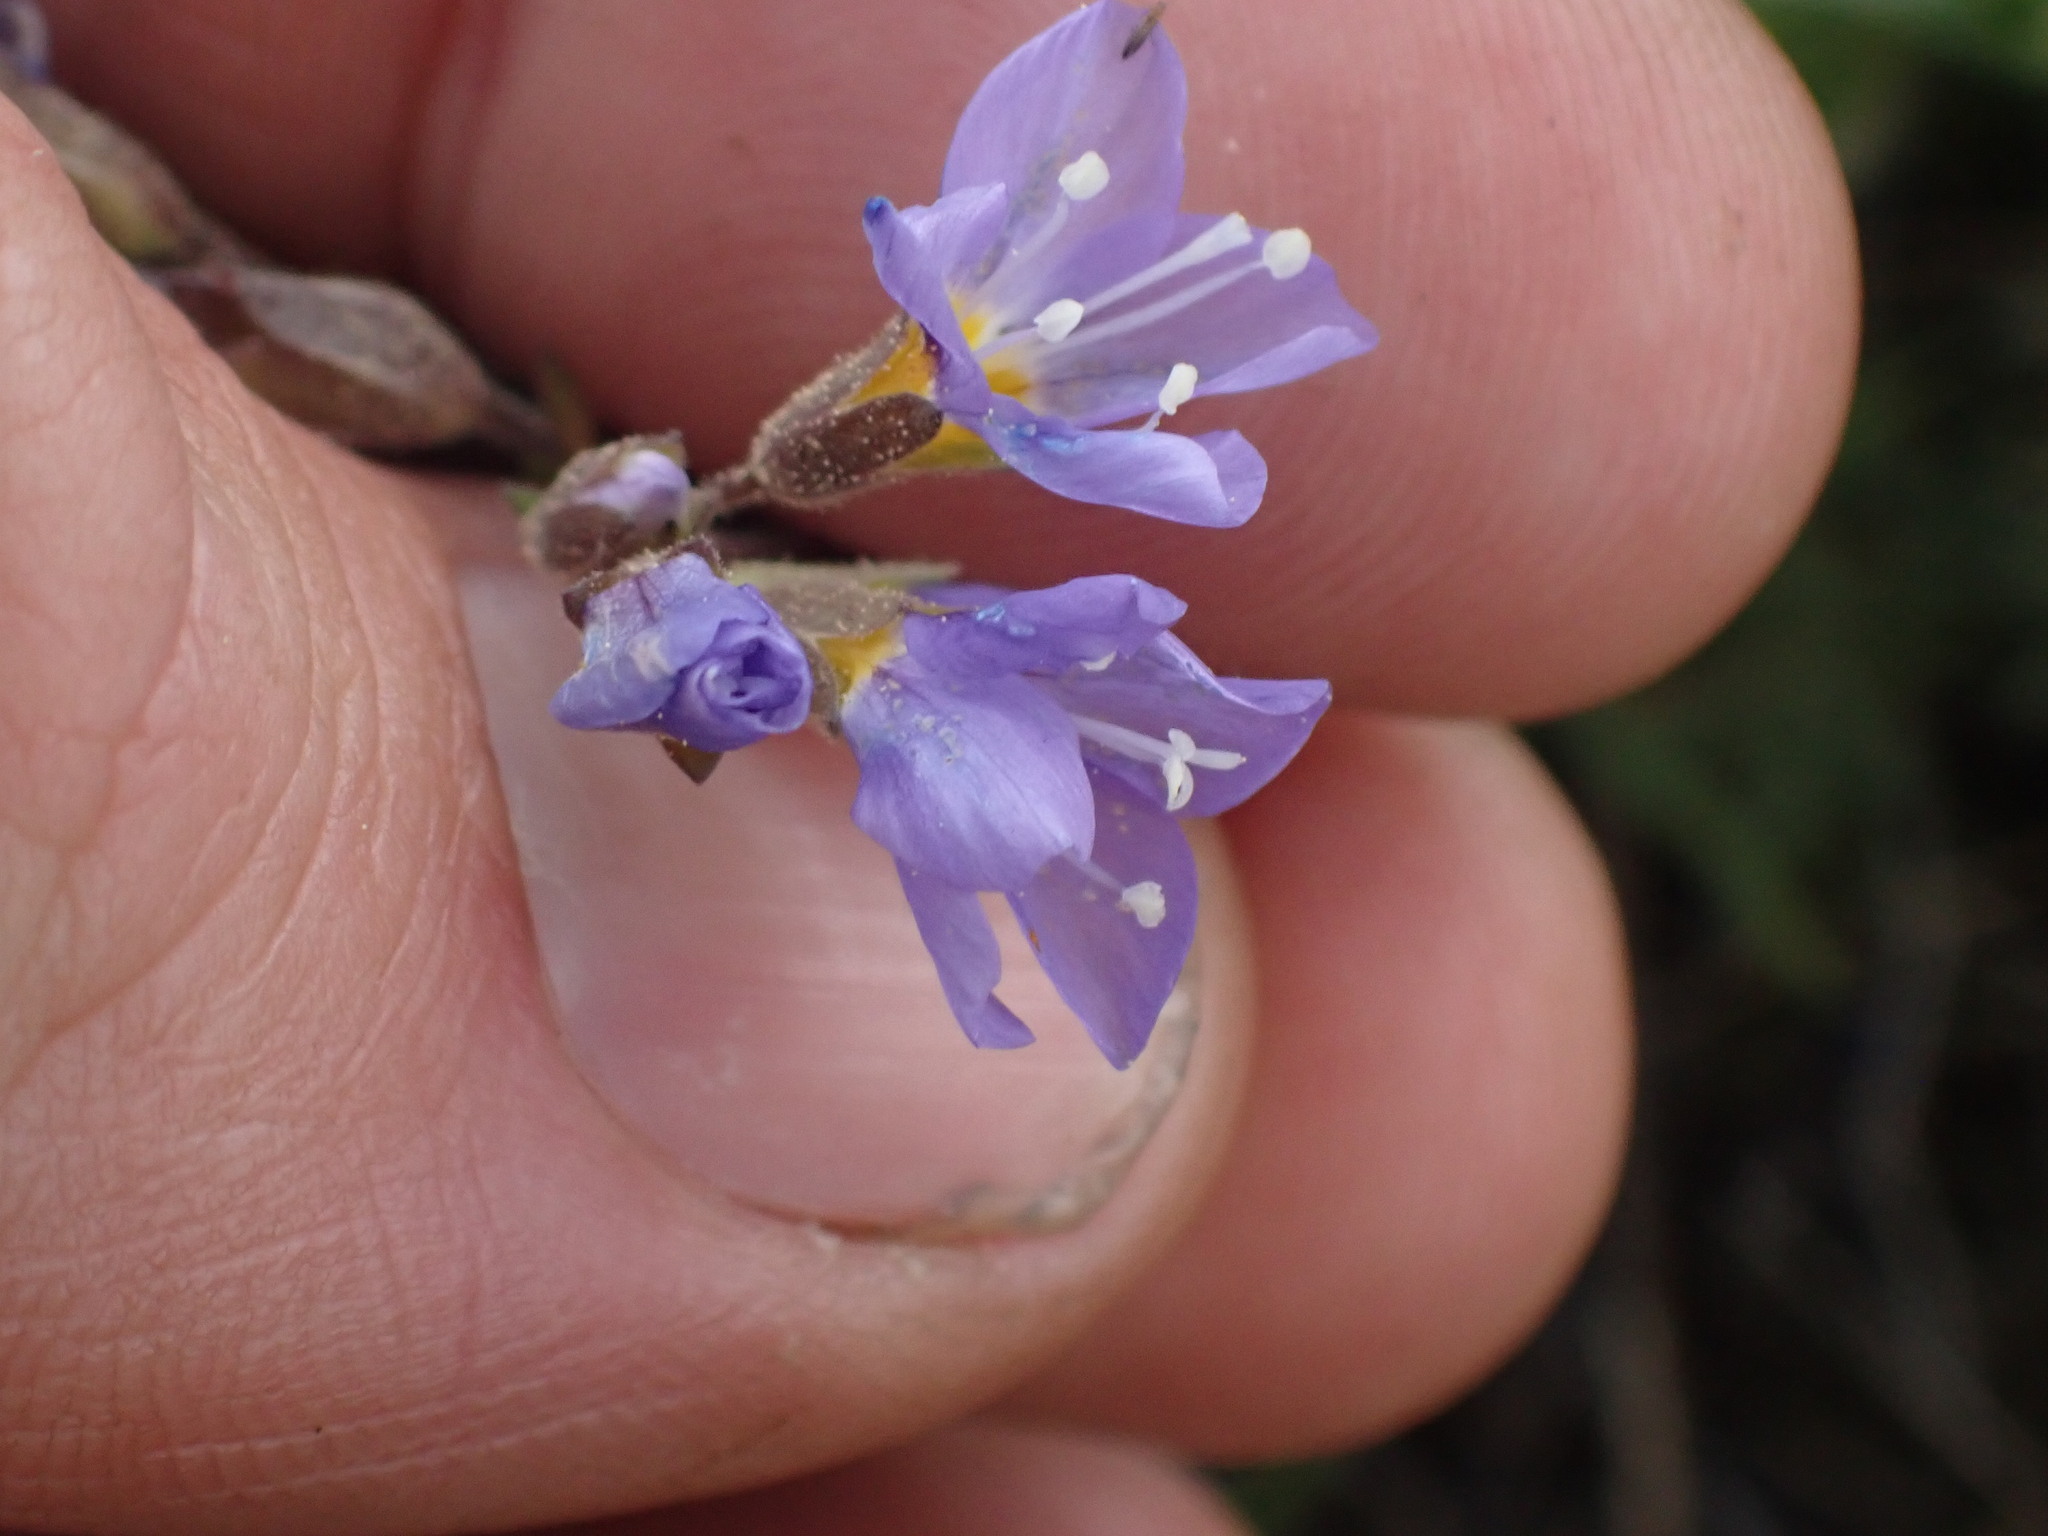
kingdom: Plantae
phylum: Tracheophyta
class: Magnoliopsida
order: Ericales
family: Polemoniaceae
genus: Polemonium
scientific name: Polemonium pulcherrimum
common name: Short jacob's-ladder
